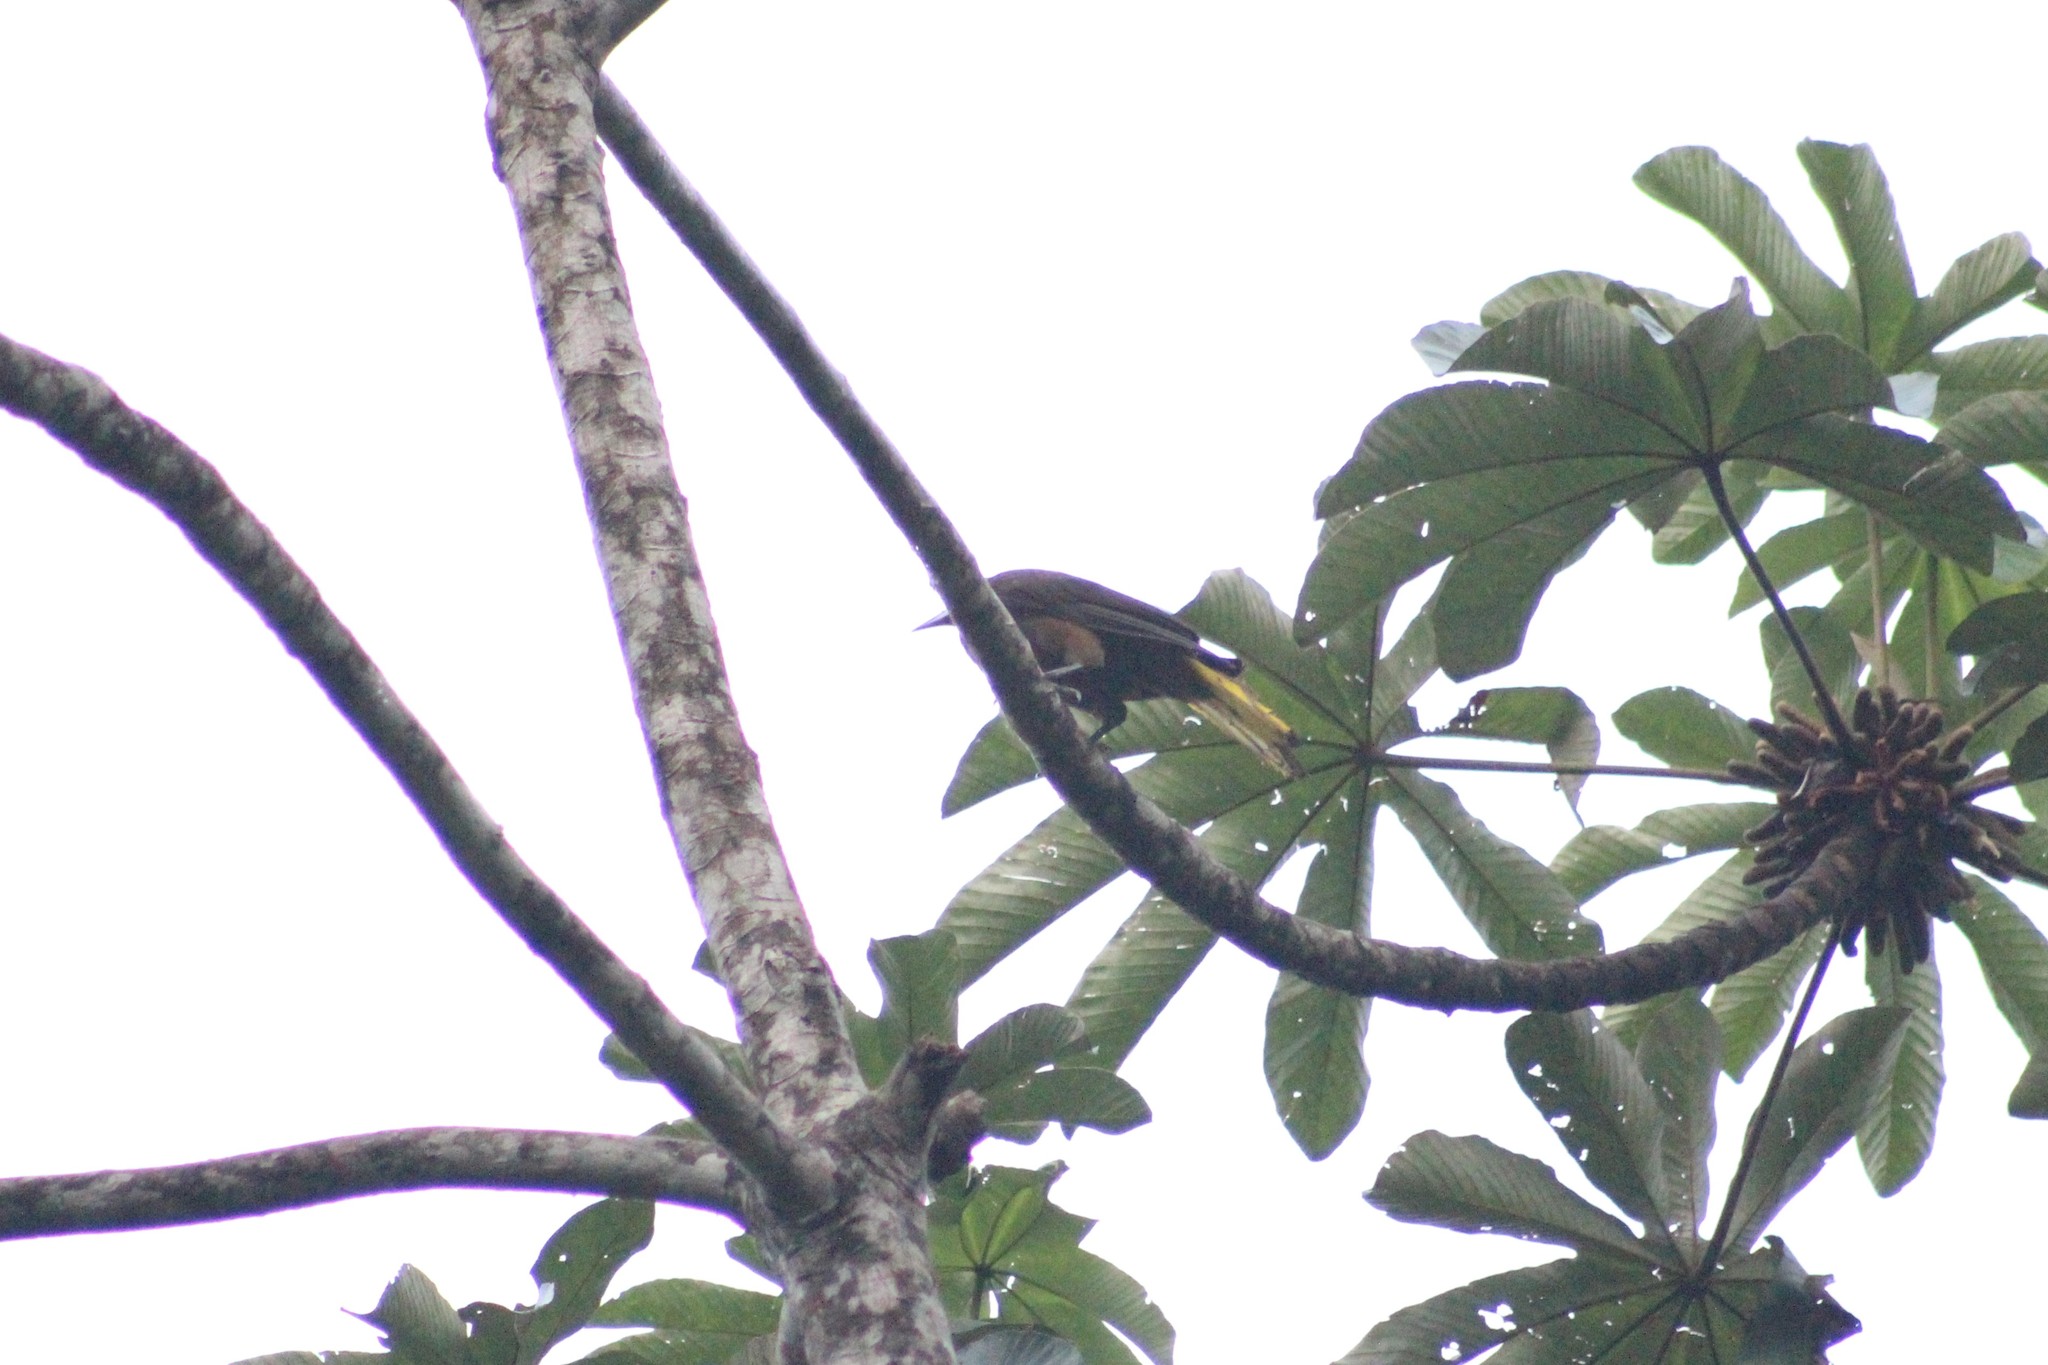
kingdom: Animalia
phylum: Chordata
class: Aves
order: Passeriformes
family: Icteridae
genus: Psarocolius
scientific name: Psarocolius angustifrons
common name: Russet-backed oropendola
